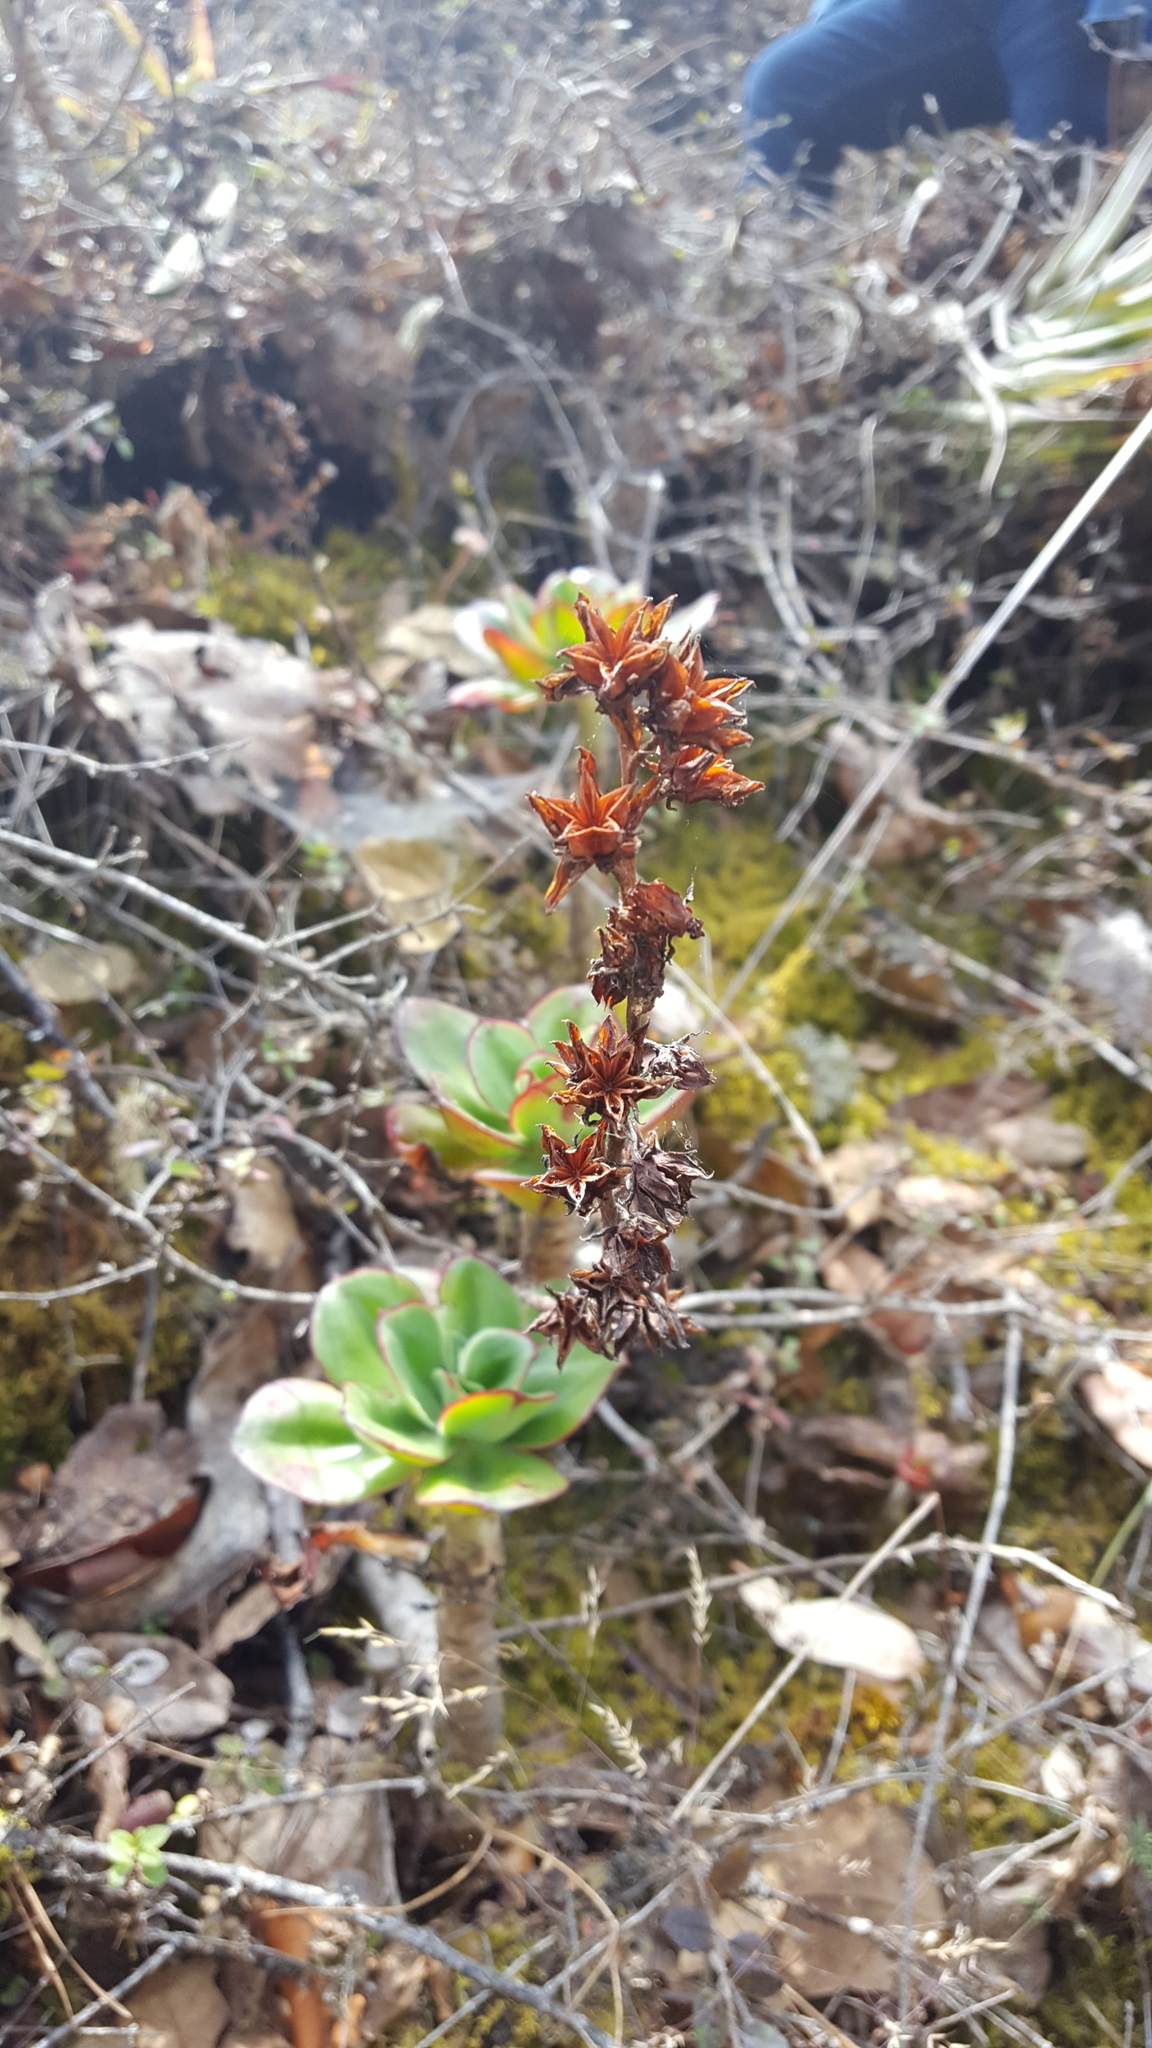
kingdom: Plantae
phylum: Tracheophyta
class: Magnoliopsida
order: Saxifragales
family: Crassulaceae
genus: Echeveria
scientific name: Echeveria montana
